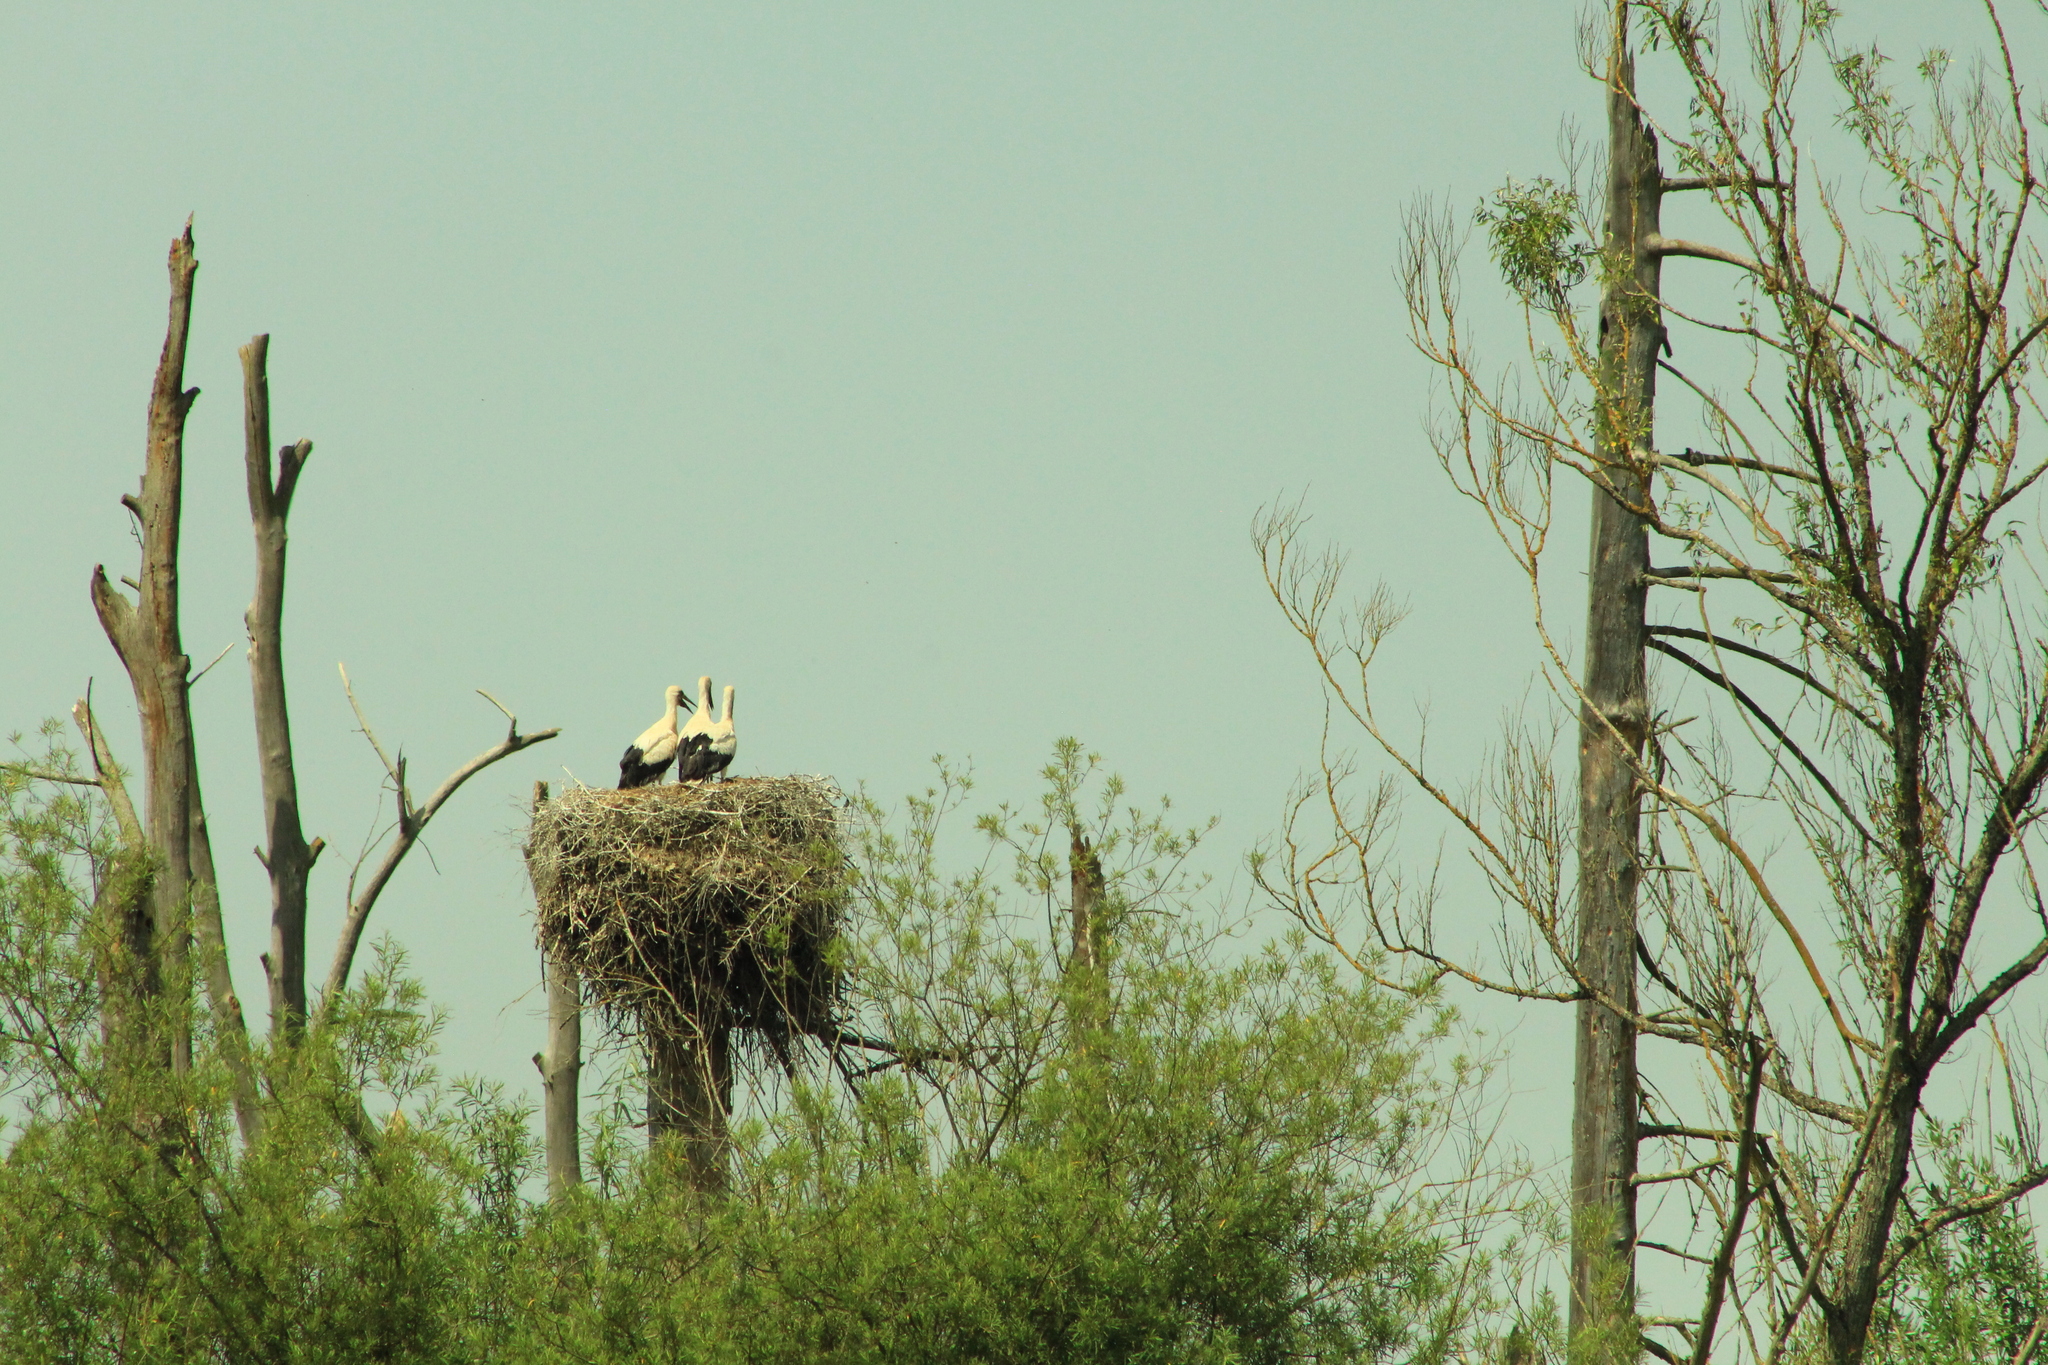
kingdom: Animalia
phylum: Chordata
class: Aves
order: Ciconiiformes
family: Ciconiidae
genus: Ciconia
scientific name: Ciconia ciconia
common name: White stork
